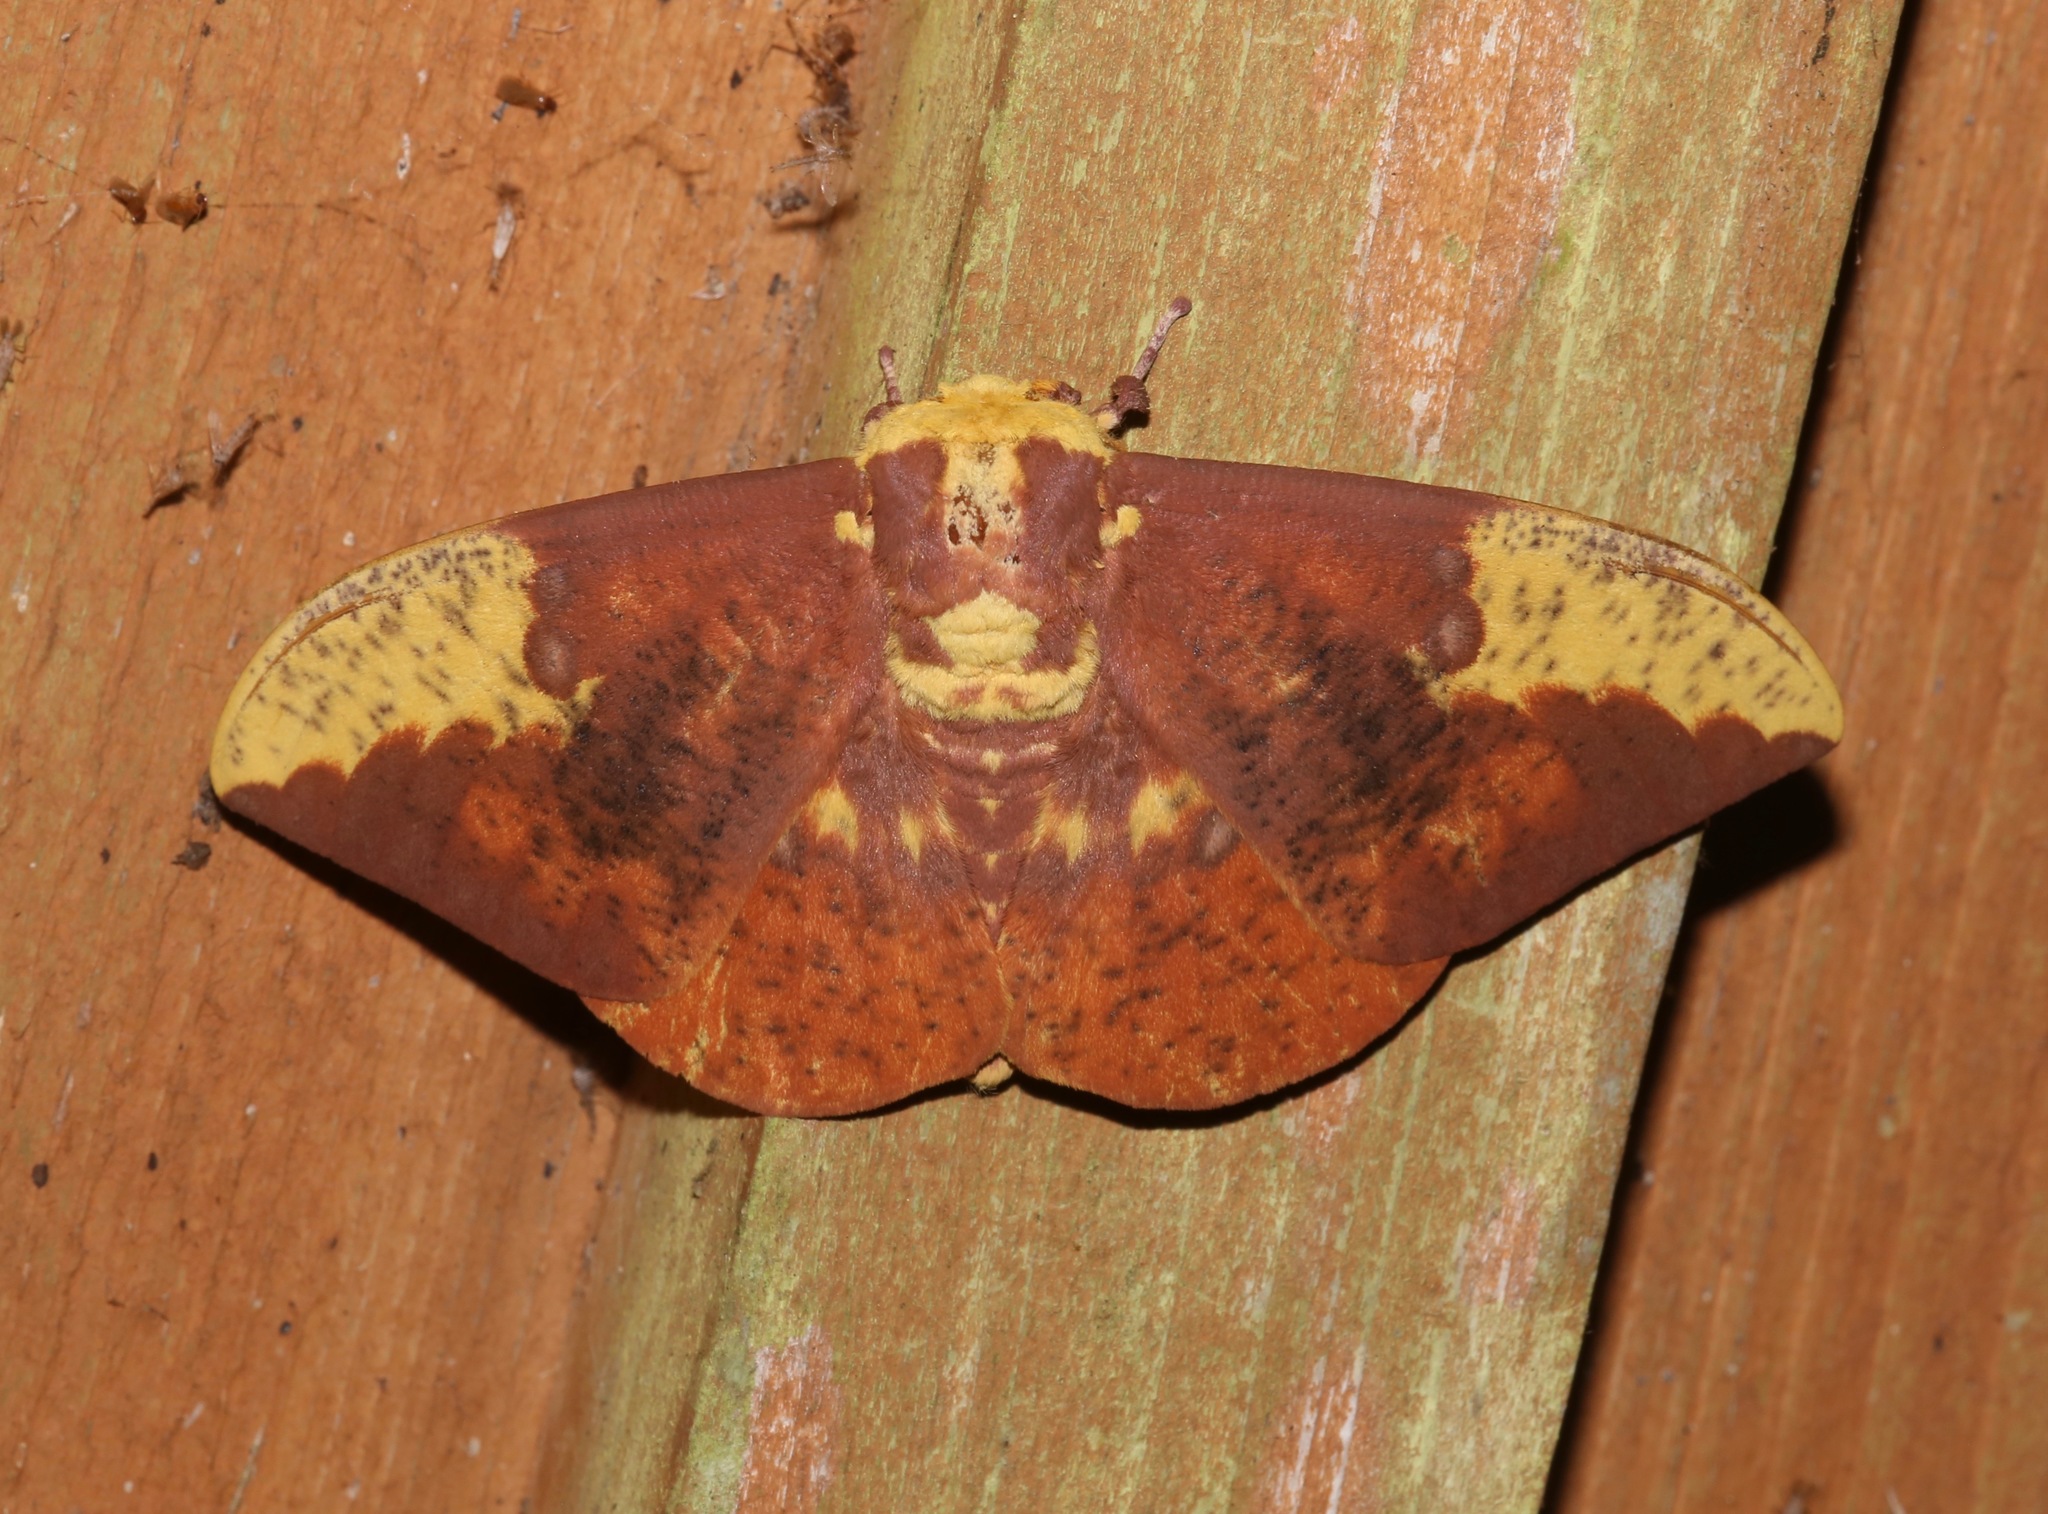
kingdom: Animalia
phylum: Arthropoda
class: Insecta
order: Lepidoptera
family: Saturniidae
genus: Eacles
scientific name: Eacles imperialis
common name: Imperial moth
